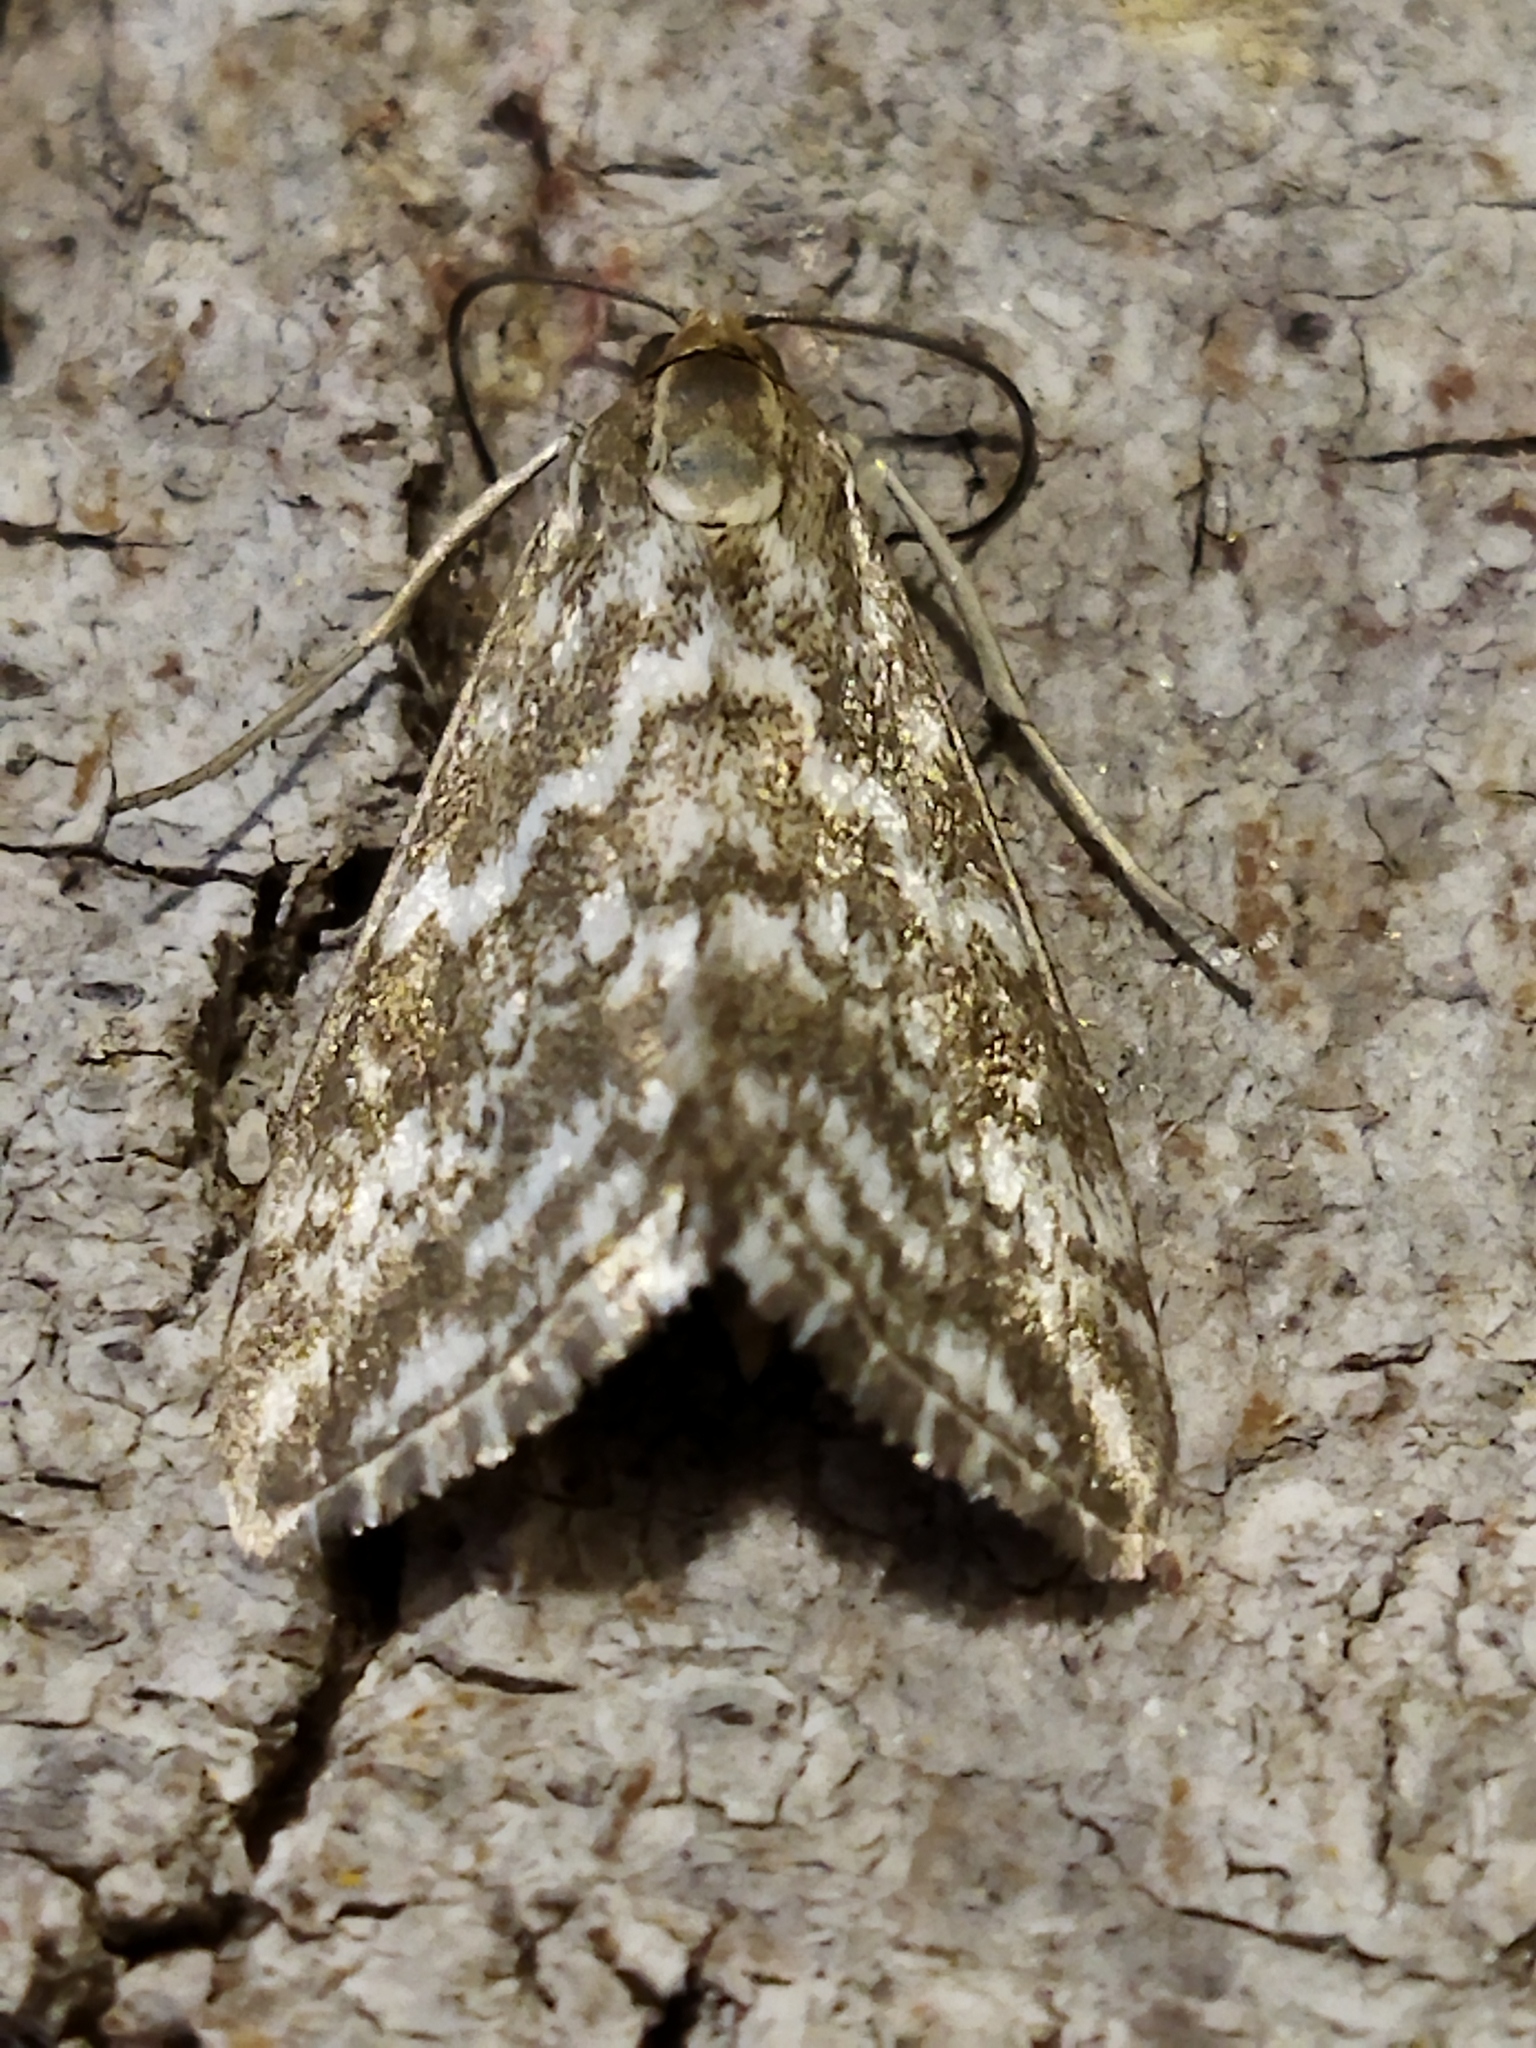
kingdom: Animalia
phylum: Arthropoda
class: Insecta
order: Lepidoptera
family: Crambidae
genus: Evergestis
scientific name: Evergestis frumentalis
